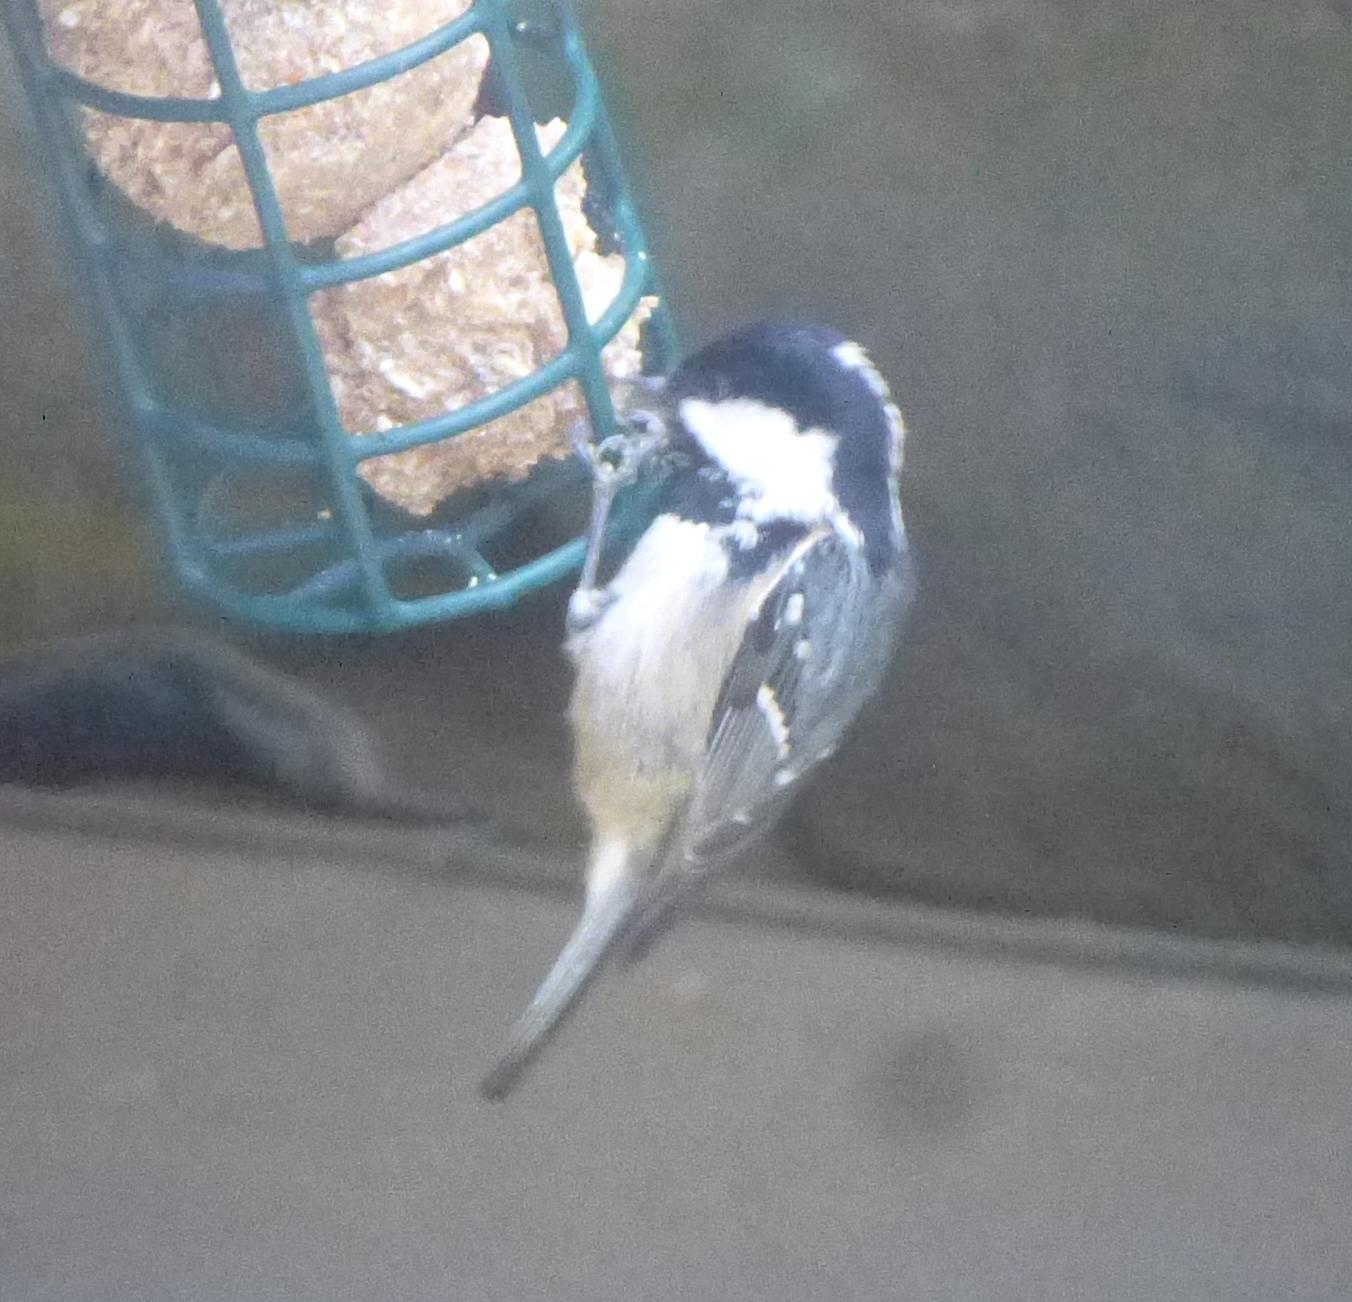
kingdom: Animalia
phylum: Chordata
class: Aves
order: Passeriformes
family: Paridae
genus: Periparus
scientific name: Periparus ater
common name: Coal tit
